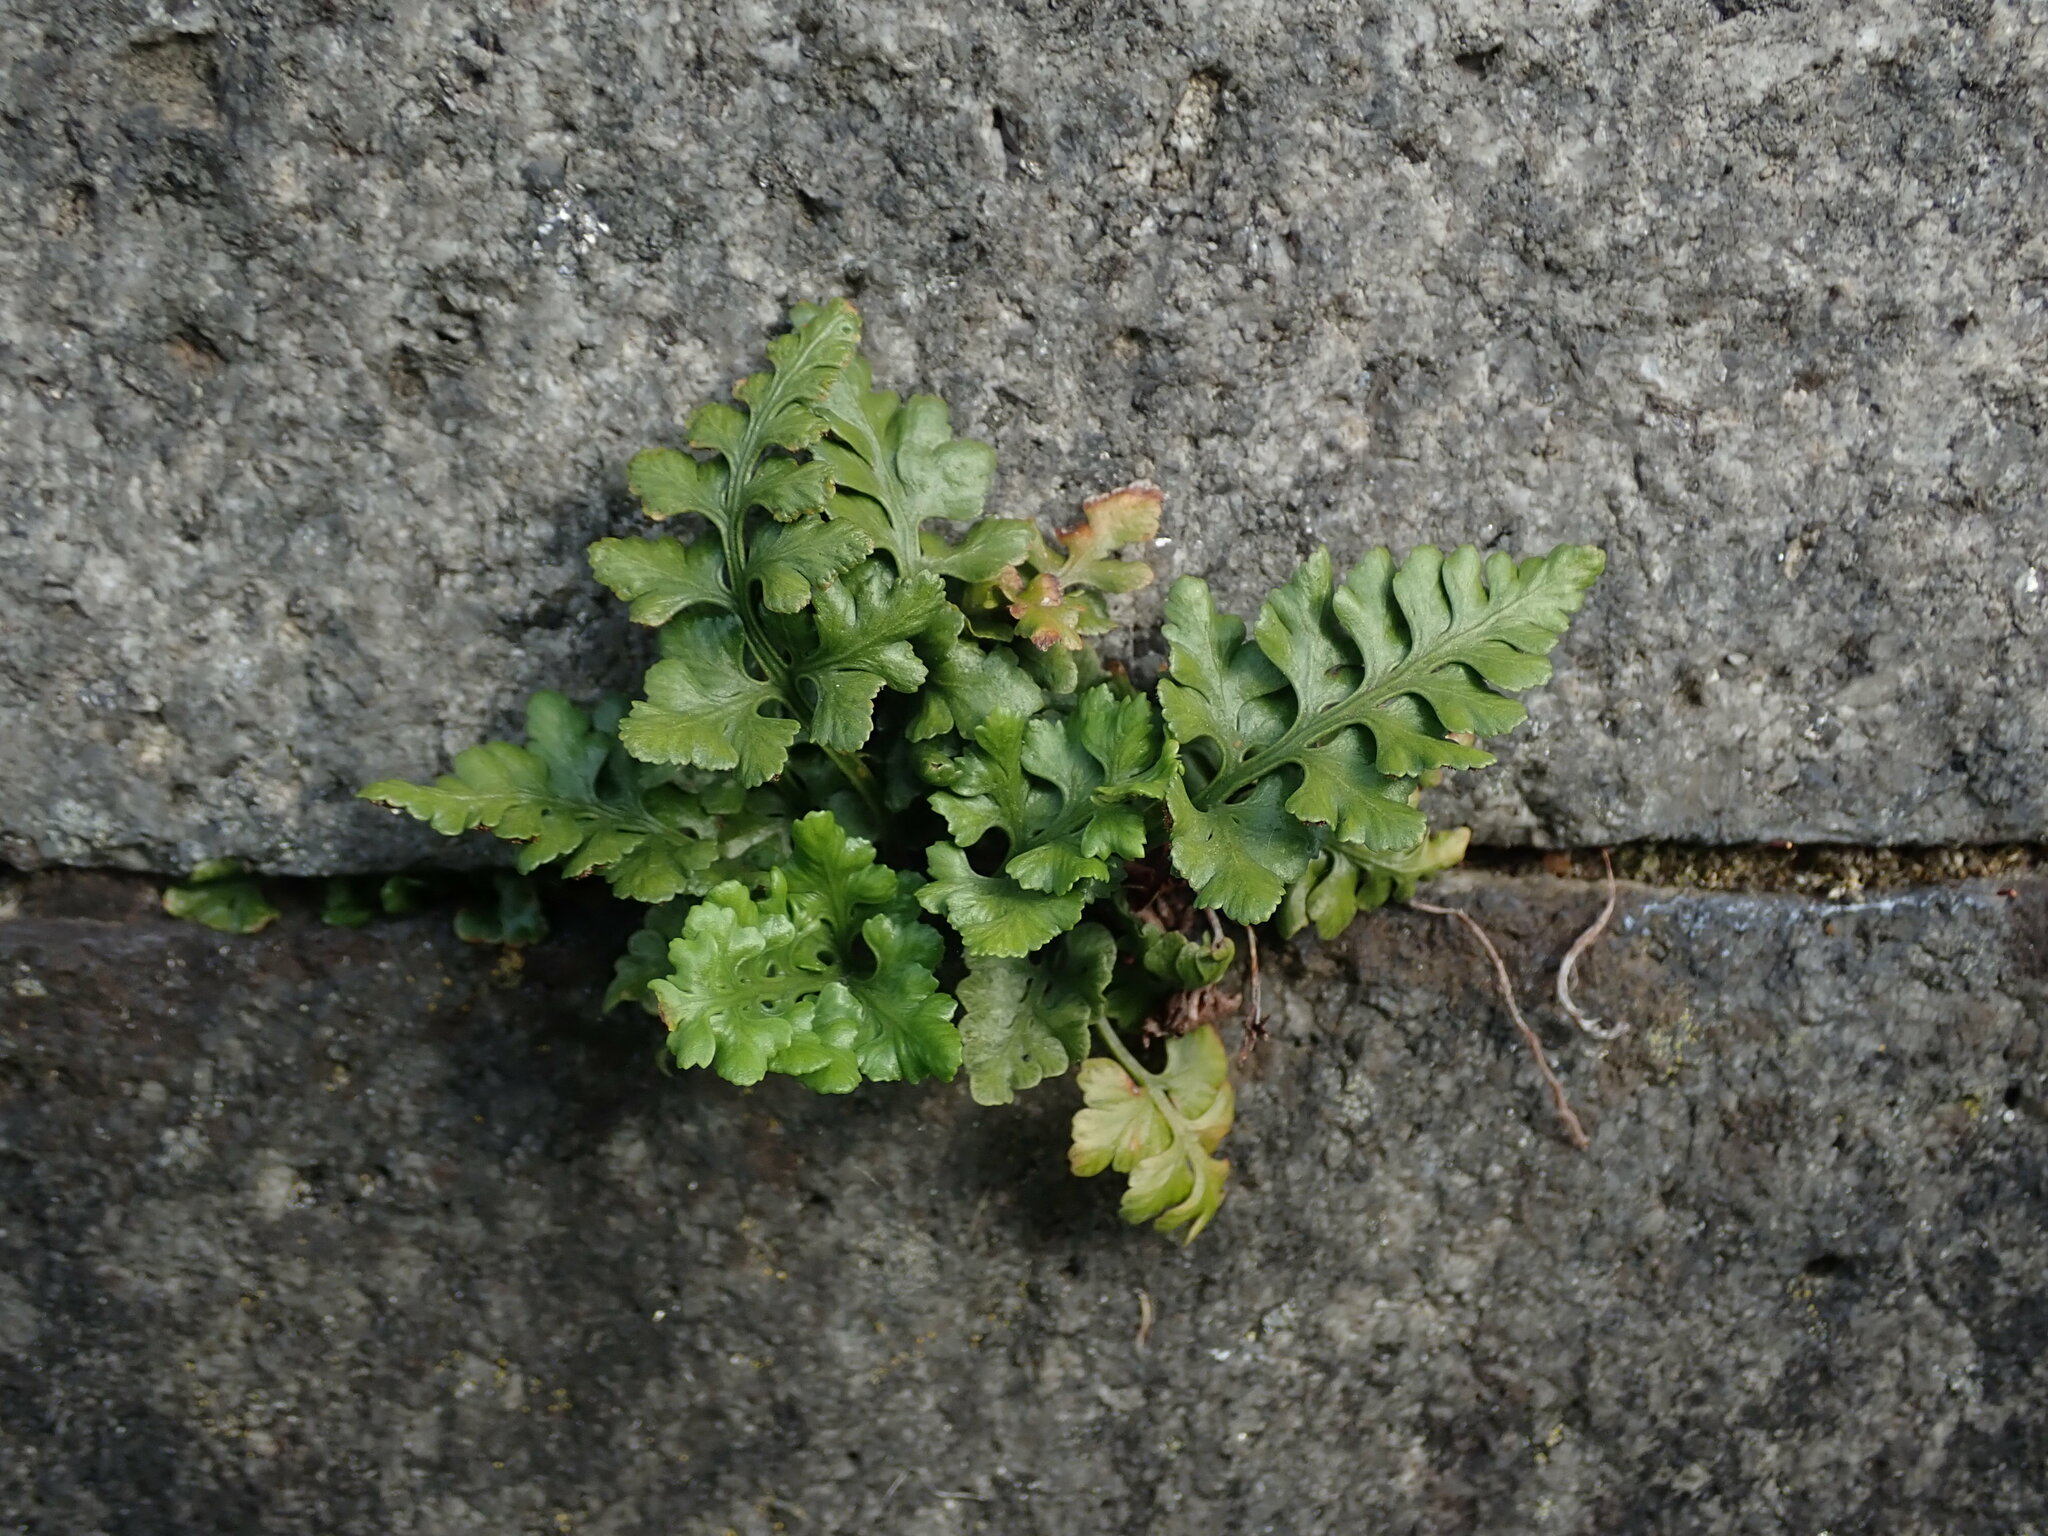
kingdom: Plantae
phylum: Tracheophyta
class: Polypodiopsida
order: Polypodiales
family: Aspleniaceae
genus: Asplenium
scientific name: Asplenium adiantum-nigrum
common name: Black spleenwort
